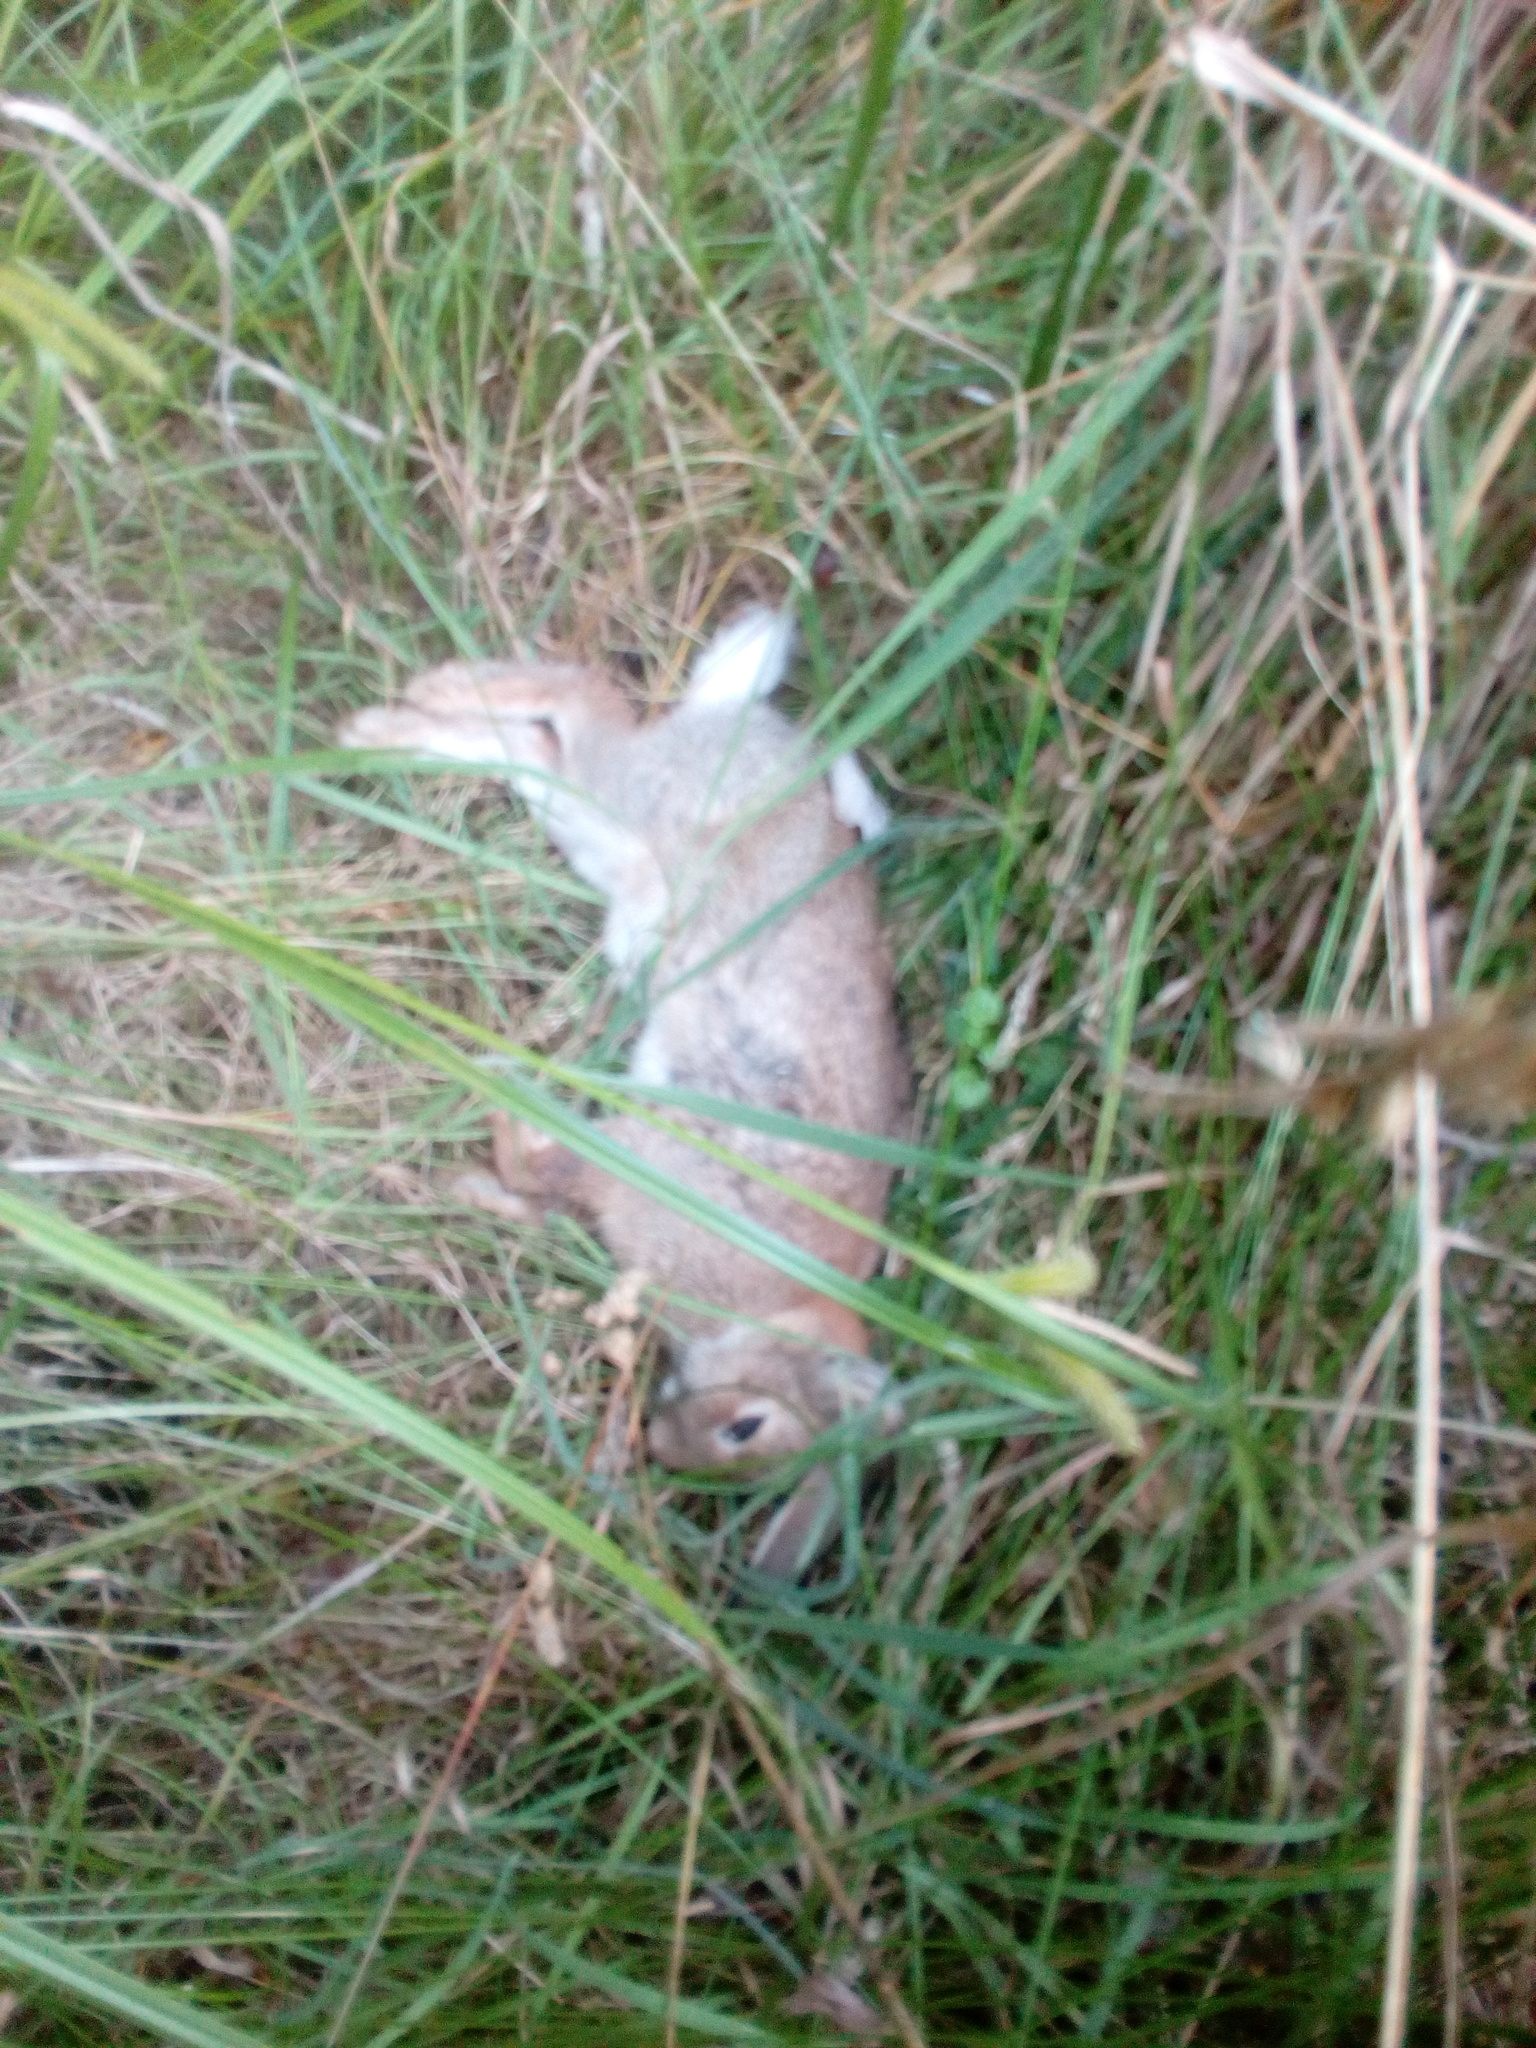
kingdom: Animalia
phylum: Chordata
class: Mammalia
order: Lagomorpha
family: Leporidae
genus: Oryctolagus
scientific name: Oryctolagus cuniculus
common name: European rabbit
